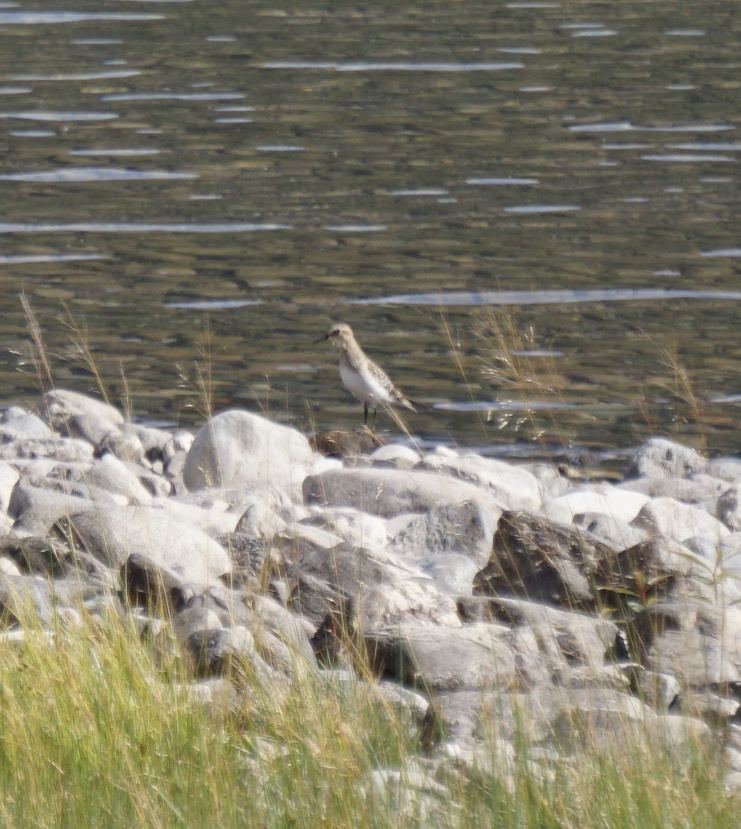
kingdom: Animalia
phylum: Chordata
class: Aves
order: Charadriiformes
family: Scolopacidae
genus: Calidris
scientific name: Calidris bairdii
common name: Baird's sandpiper
